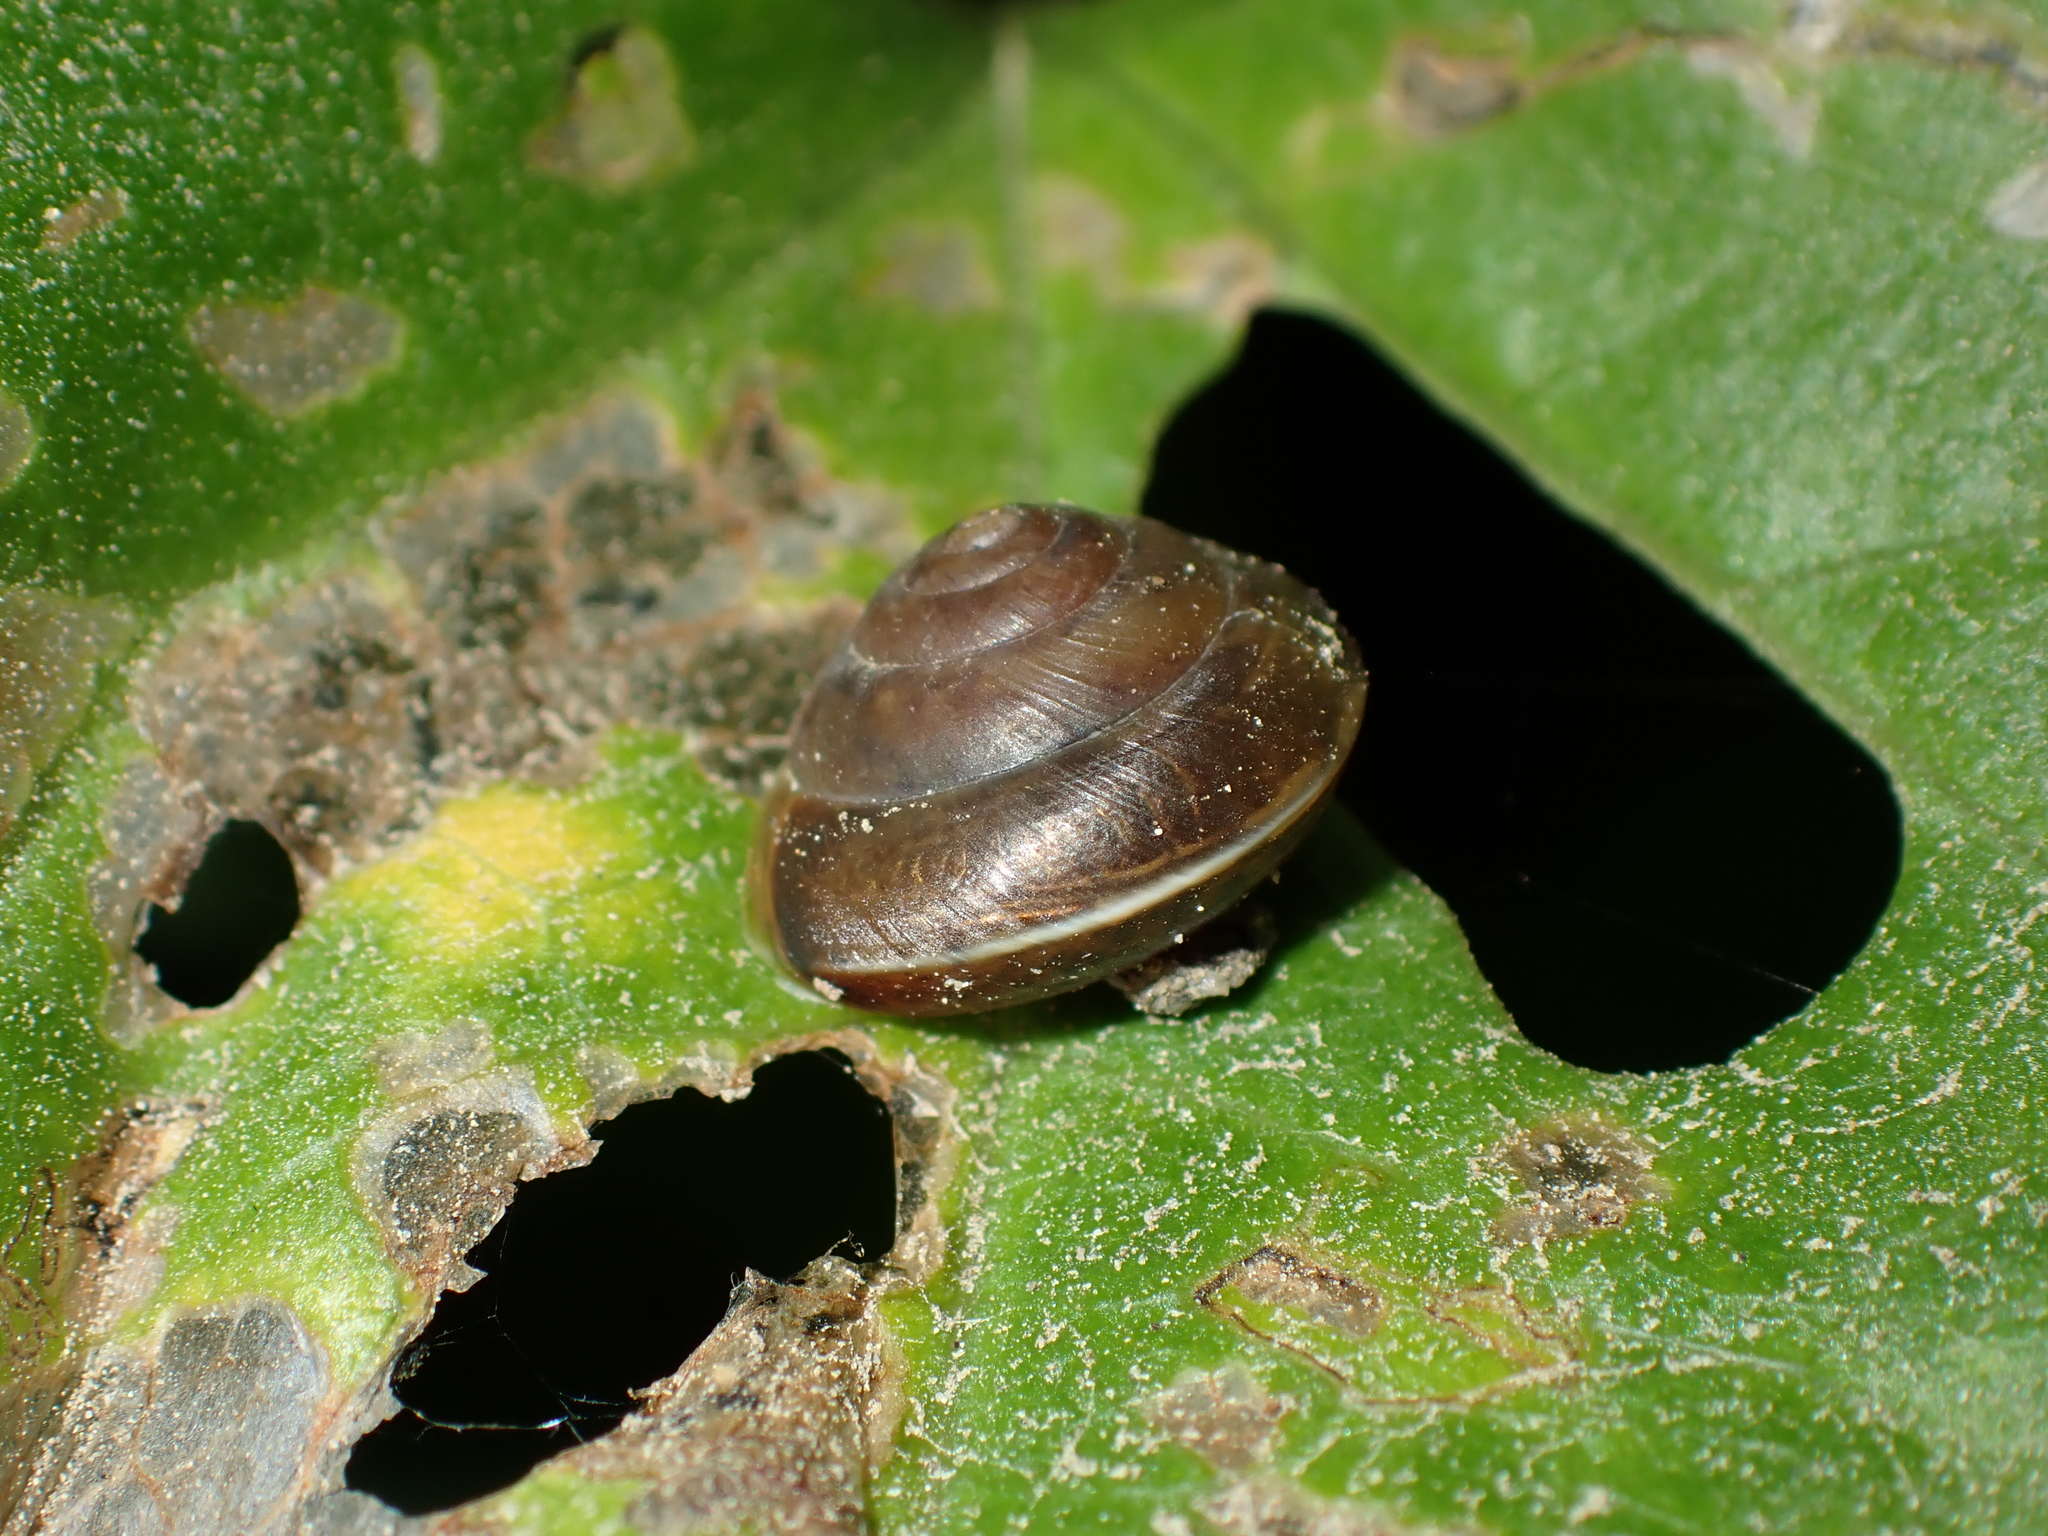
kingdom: Animalia
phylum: Mollusca
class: Gastropoda
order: Stylommatophora
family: Hygromiidae
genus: Hygromia
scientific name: Hygromia cinctella
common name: Girdled snail
